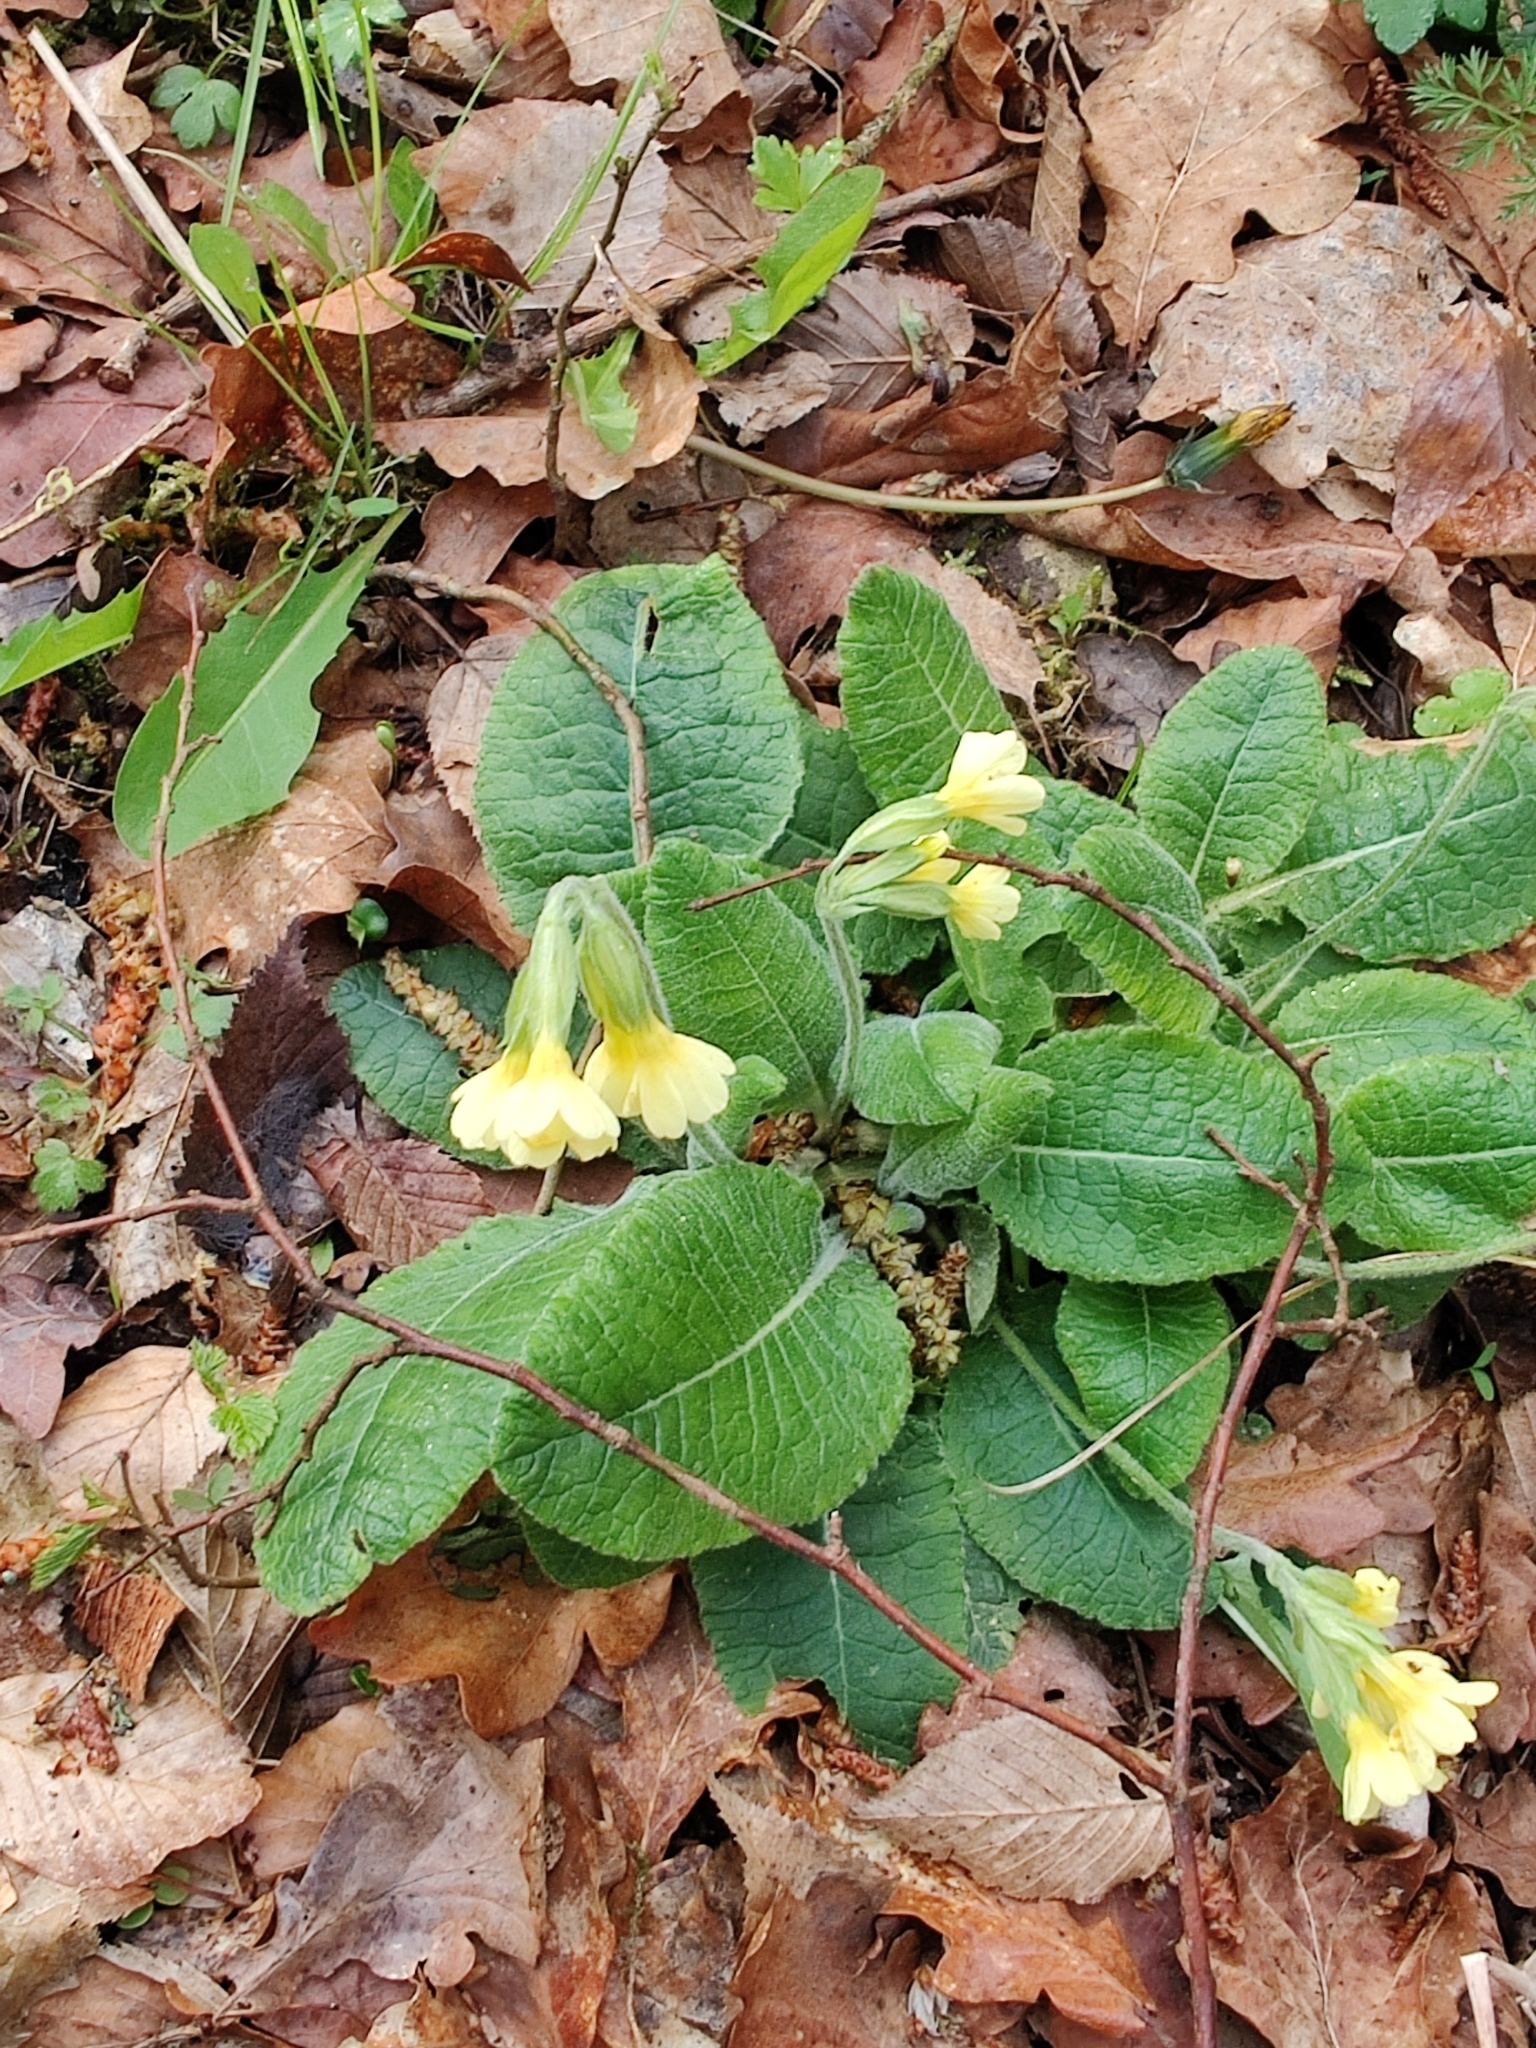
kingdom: Plantae
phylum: Tracheophyta
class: Magnoliopsida
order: Ericales
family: Primulaceae
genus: Primula
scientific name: Primula elatior
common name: Oxlip
